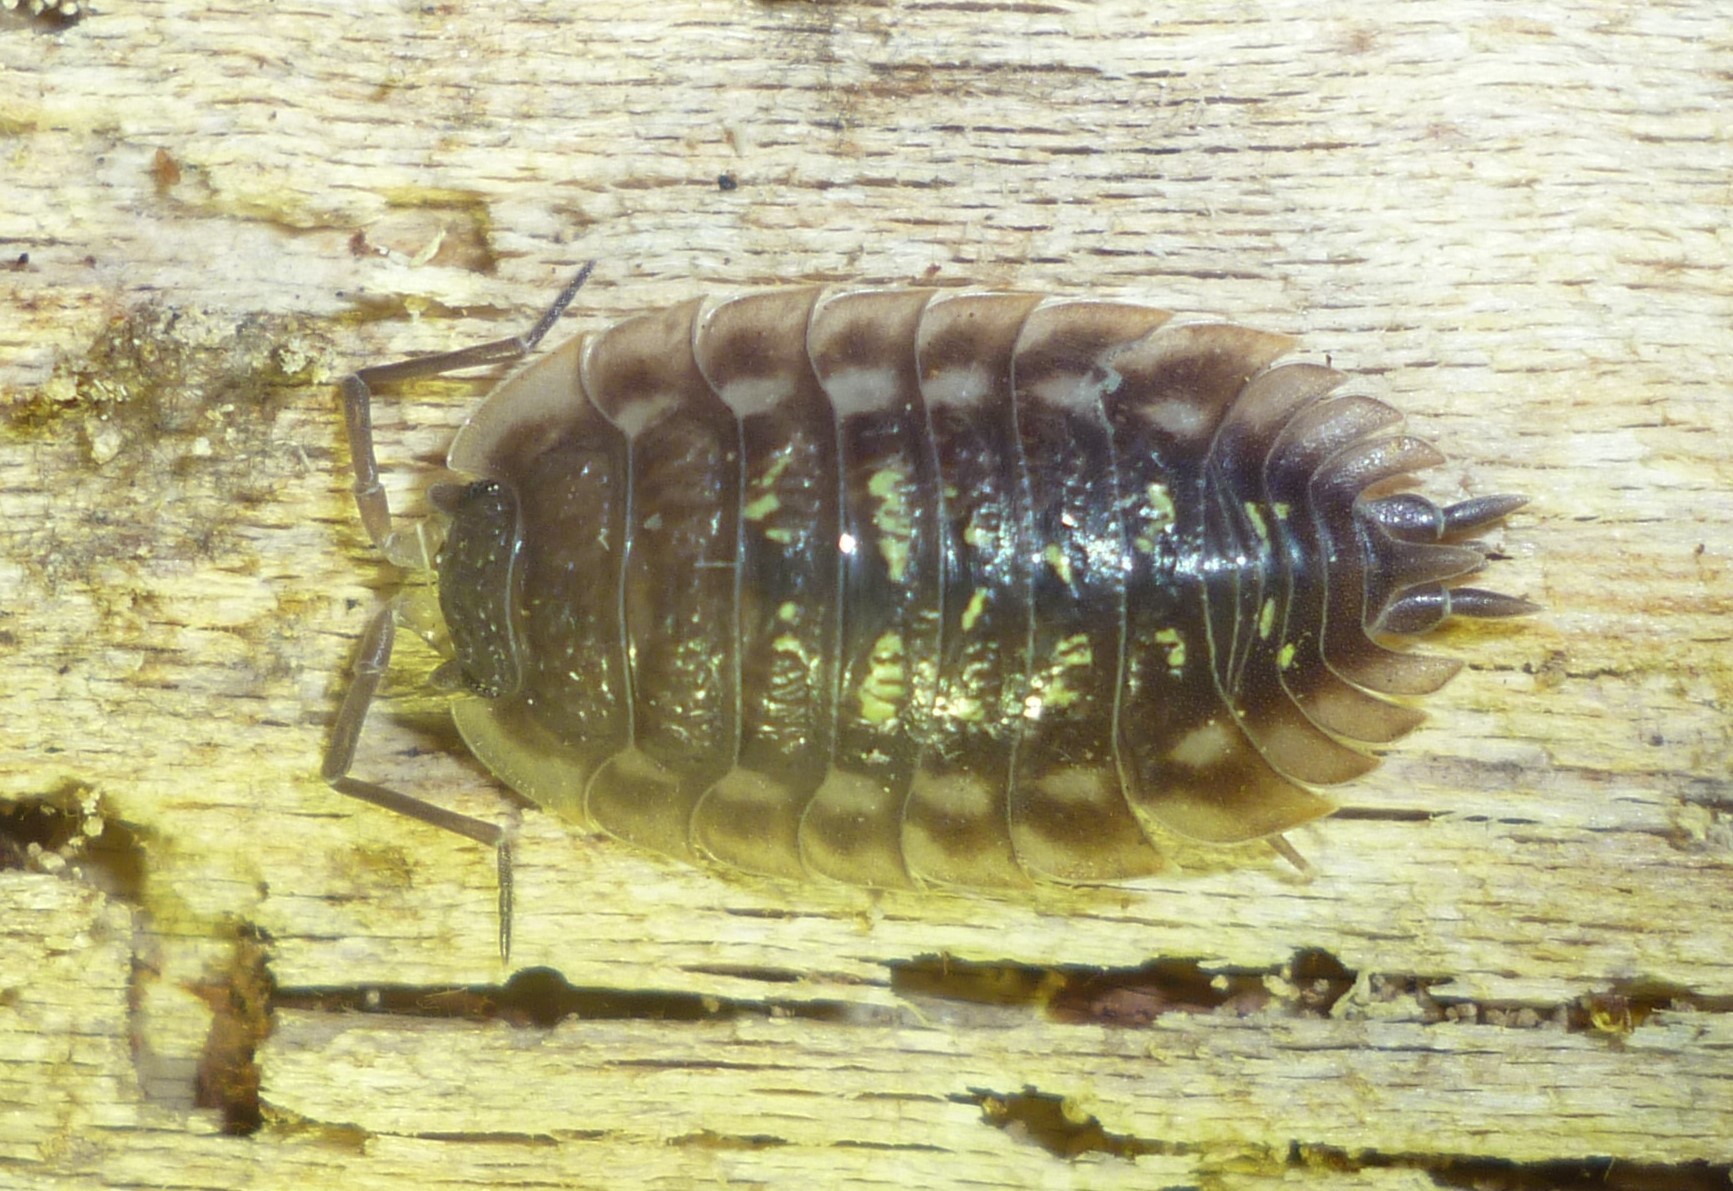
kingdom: Animalia
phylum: Arthropoda
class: Malacostraca
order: Isopoda
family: Oniscidae
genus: Oniscus
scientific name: Oniscus asellus
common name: Common shiny woodlouse
